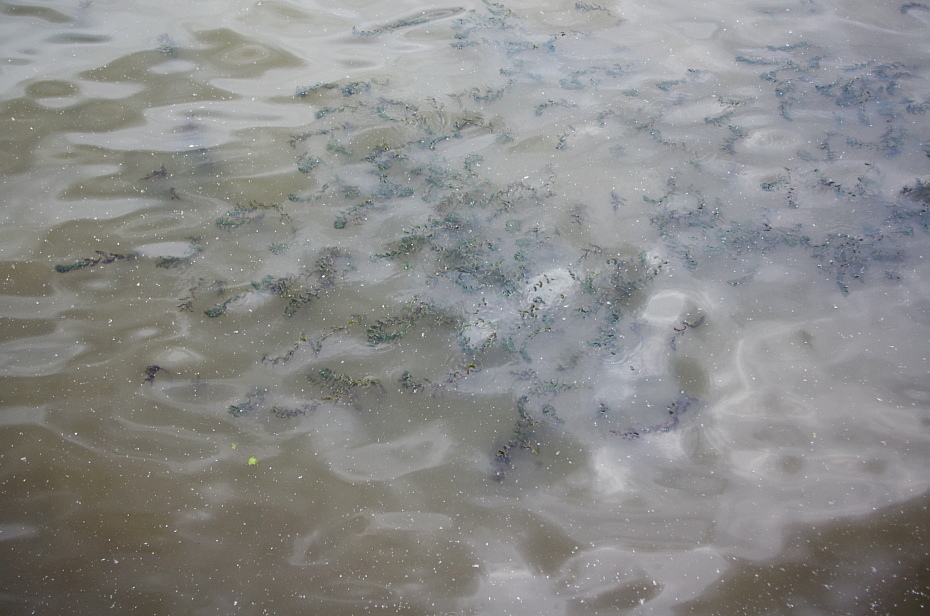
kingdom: Plantae
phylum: Tracheophyta
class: Liliopsida
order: Alismatales
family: Potamogetonaceae
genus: Potamogeton
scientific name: Potamogeton perfoliatus
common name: Perfoliate pondweed
